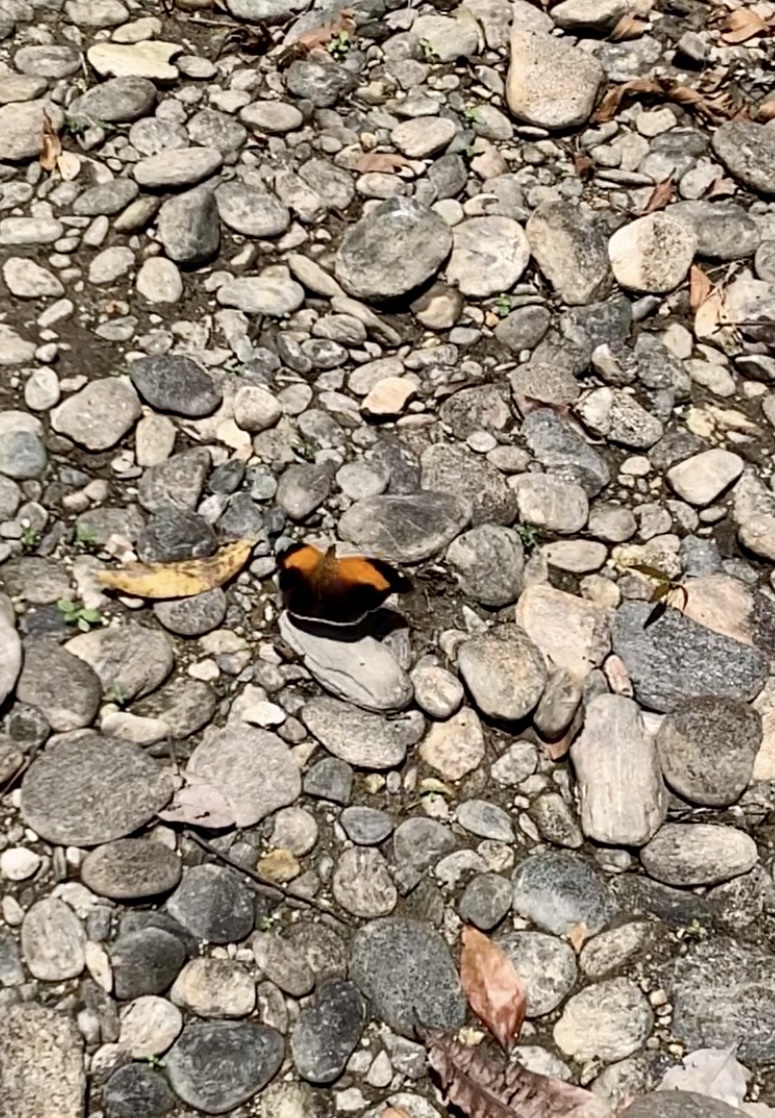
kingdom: Animalia
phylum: Arthropoda
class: Insecta
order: Lepidoptera
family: Nymphalidae
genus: Historis
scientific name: Historis odius
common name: Orion cecropian
